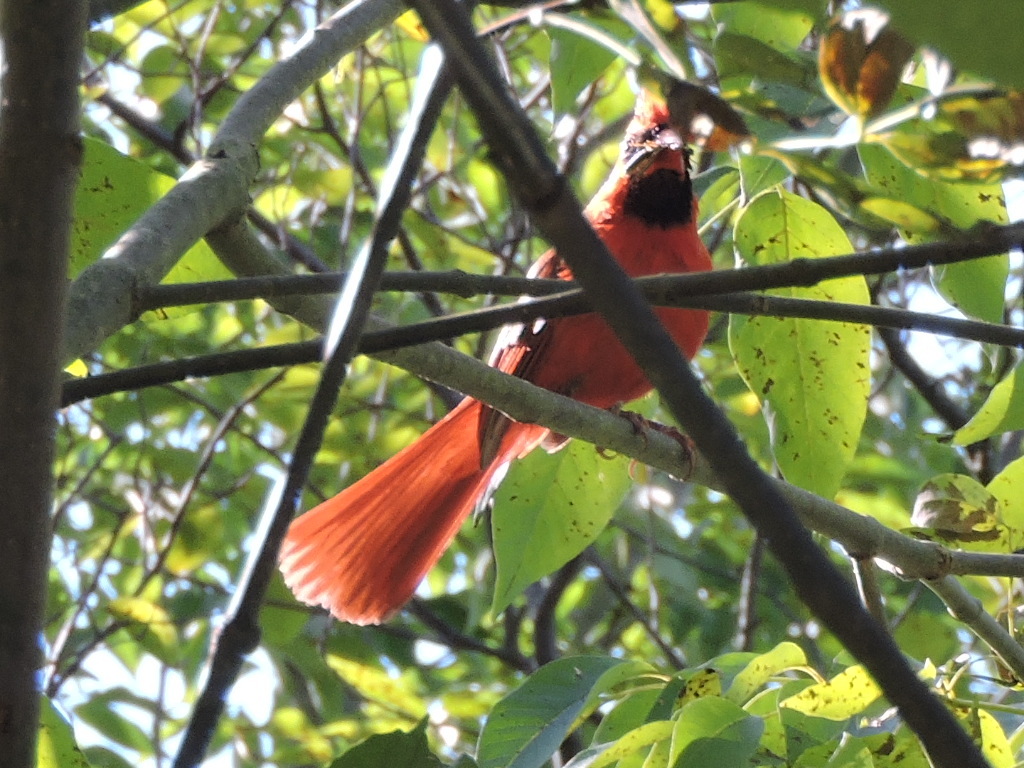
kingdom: Animalia
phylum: Chordata
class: Aves
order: Passeriformes
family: Cardinalidae
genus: Cardinalis
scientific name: Cardinalis cardinalis
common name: Northern cardinal
